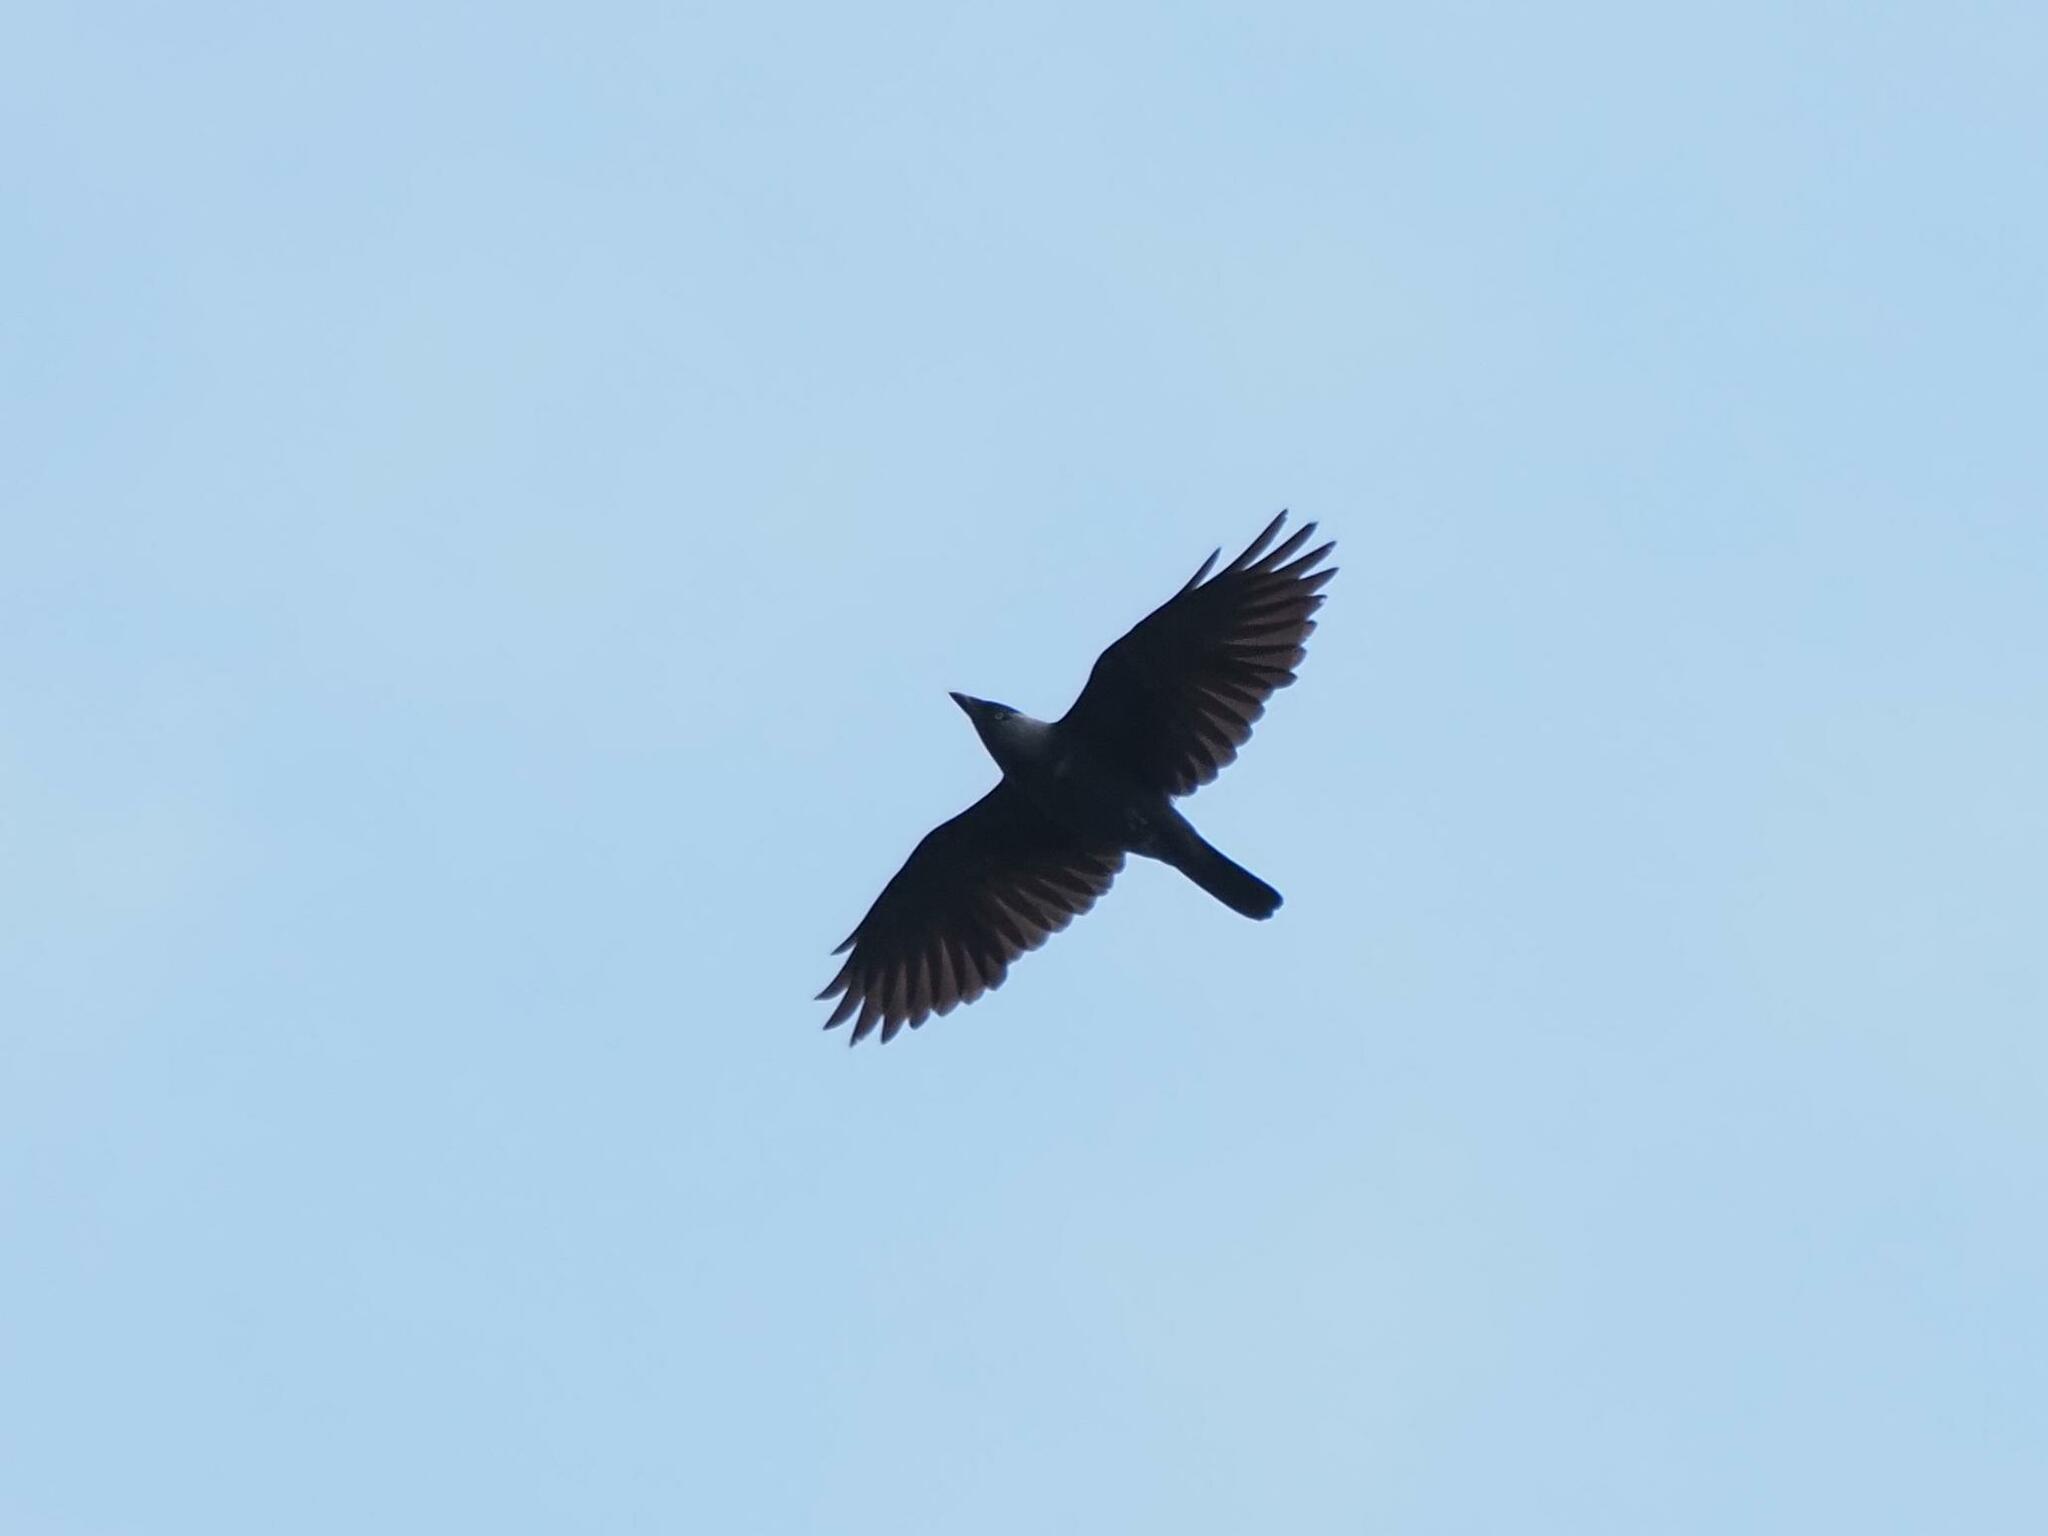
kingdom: Animalia
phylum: Chordata
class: Aves
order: Passeriformes
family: Corvidae
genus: Coloeus
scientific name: Coloeus monedula
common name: Western jackdaw
